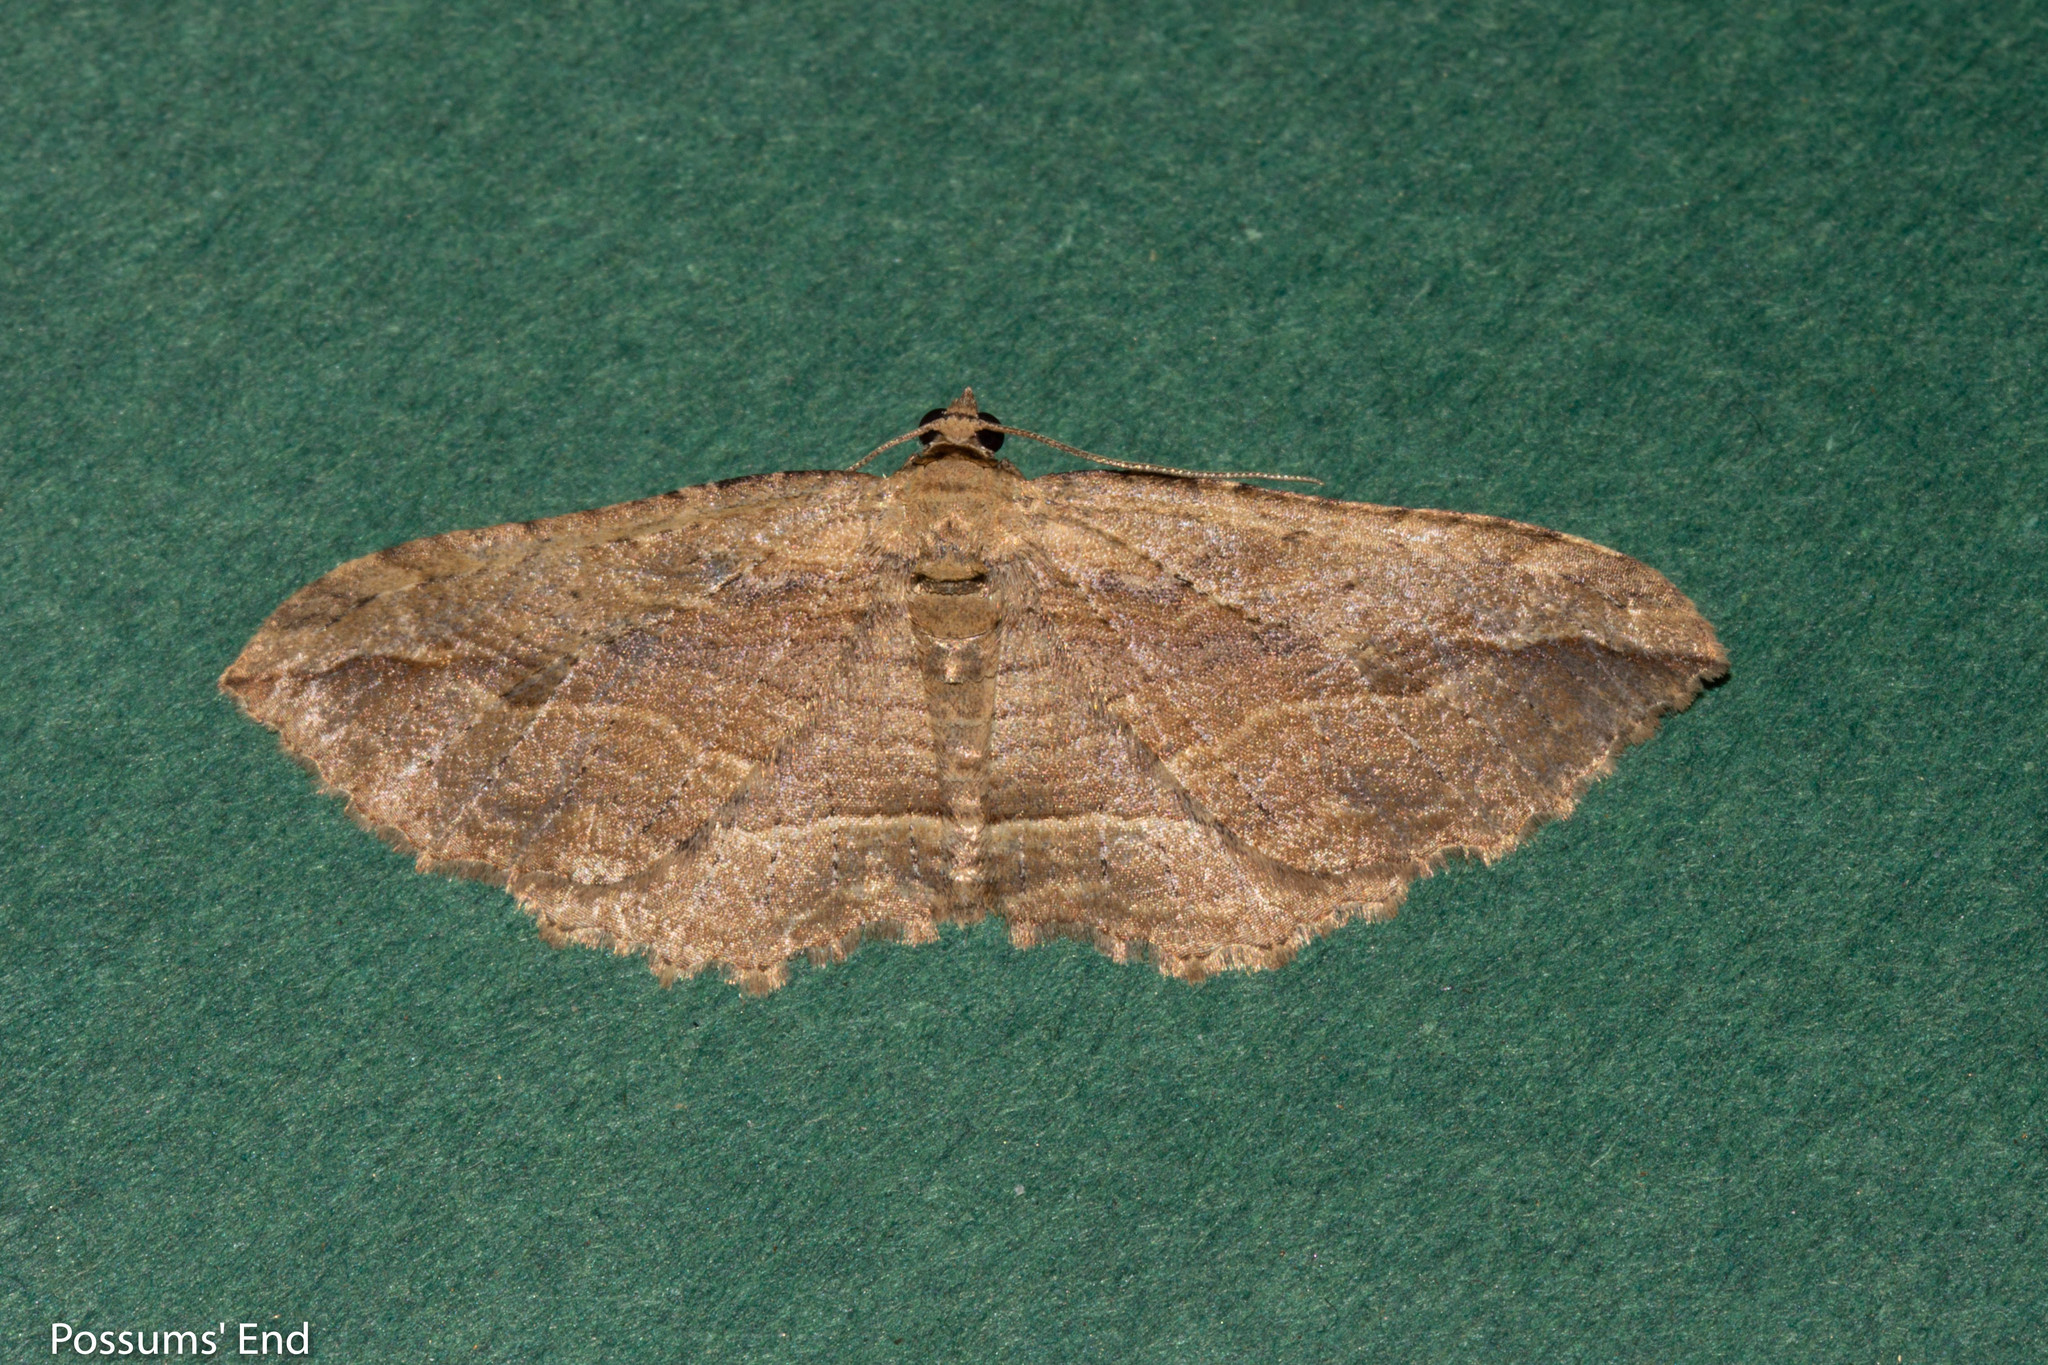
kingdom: Animalia
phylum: Arthropoda
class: Insecta
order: Lepidoptera
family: Geometridae
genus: Austrocidaria
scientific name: Austrocidaria gobiata
